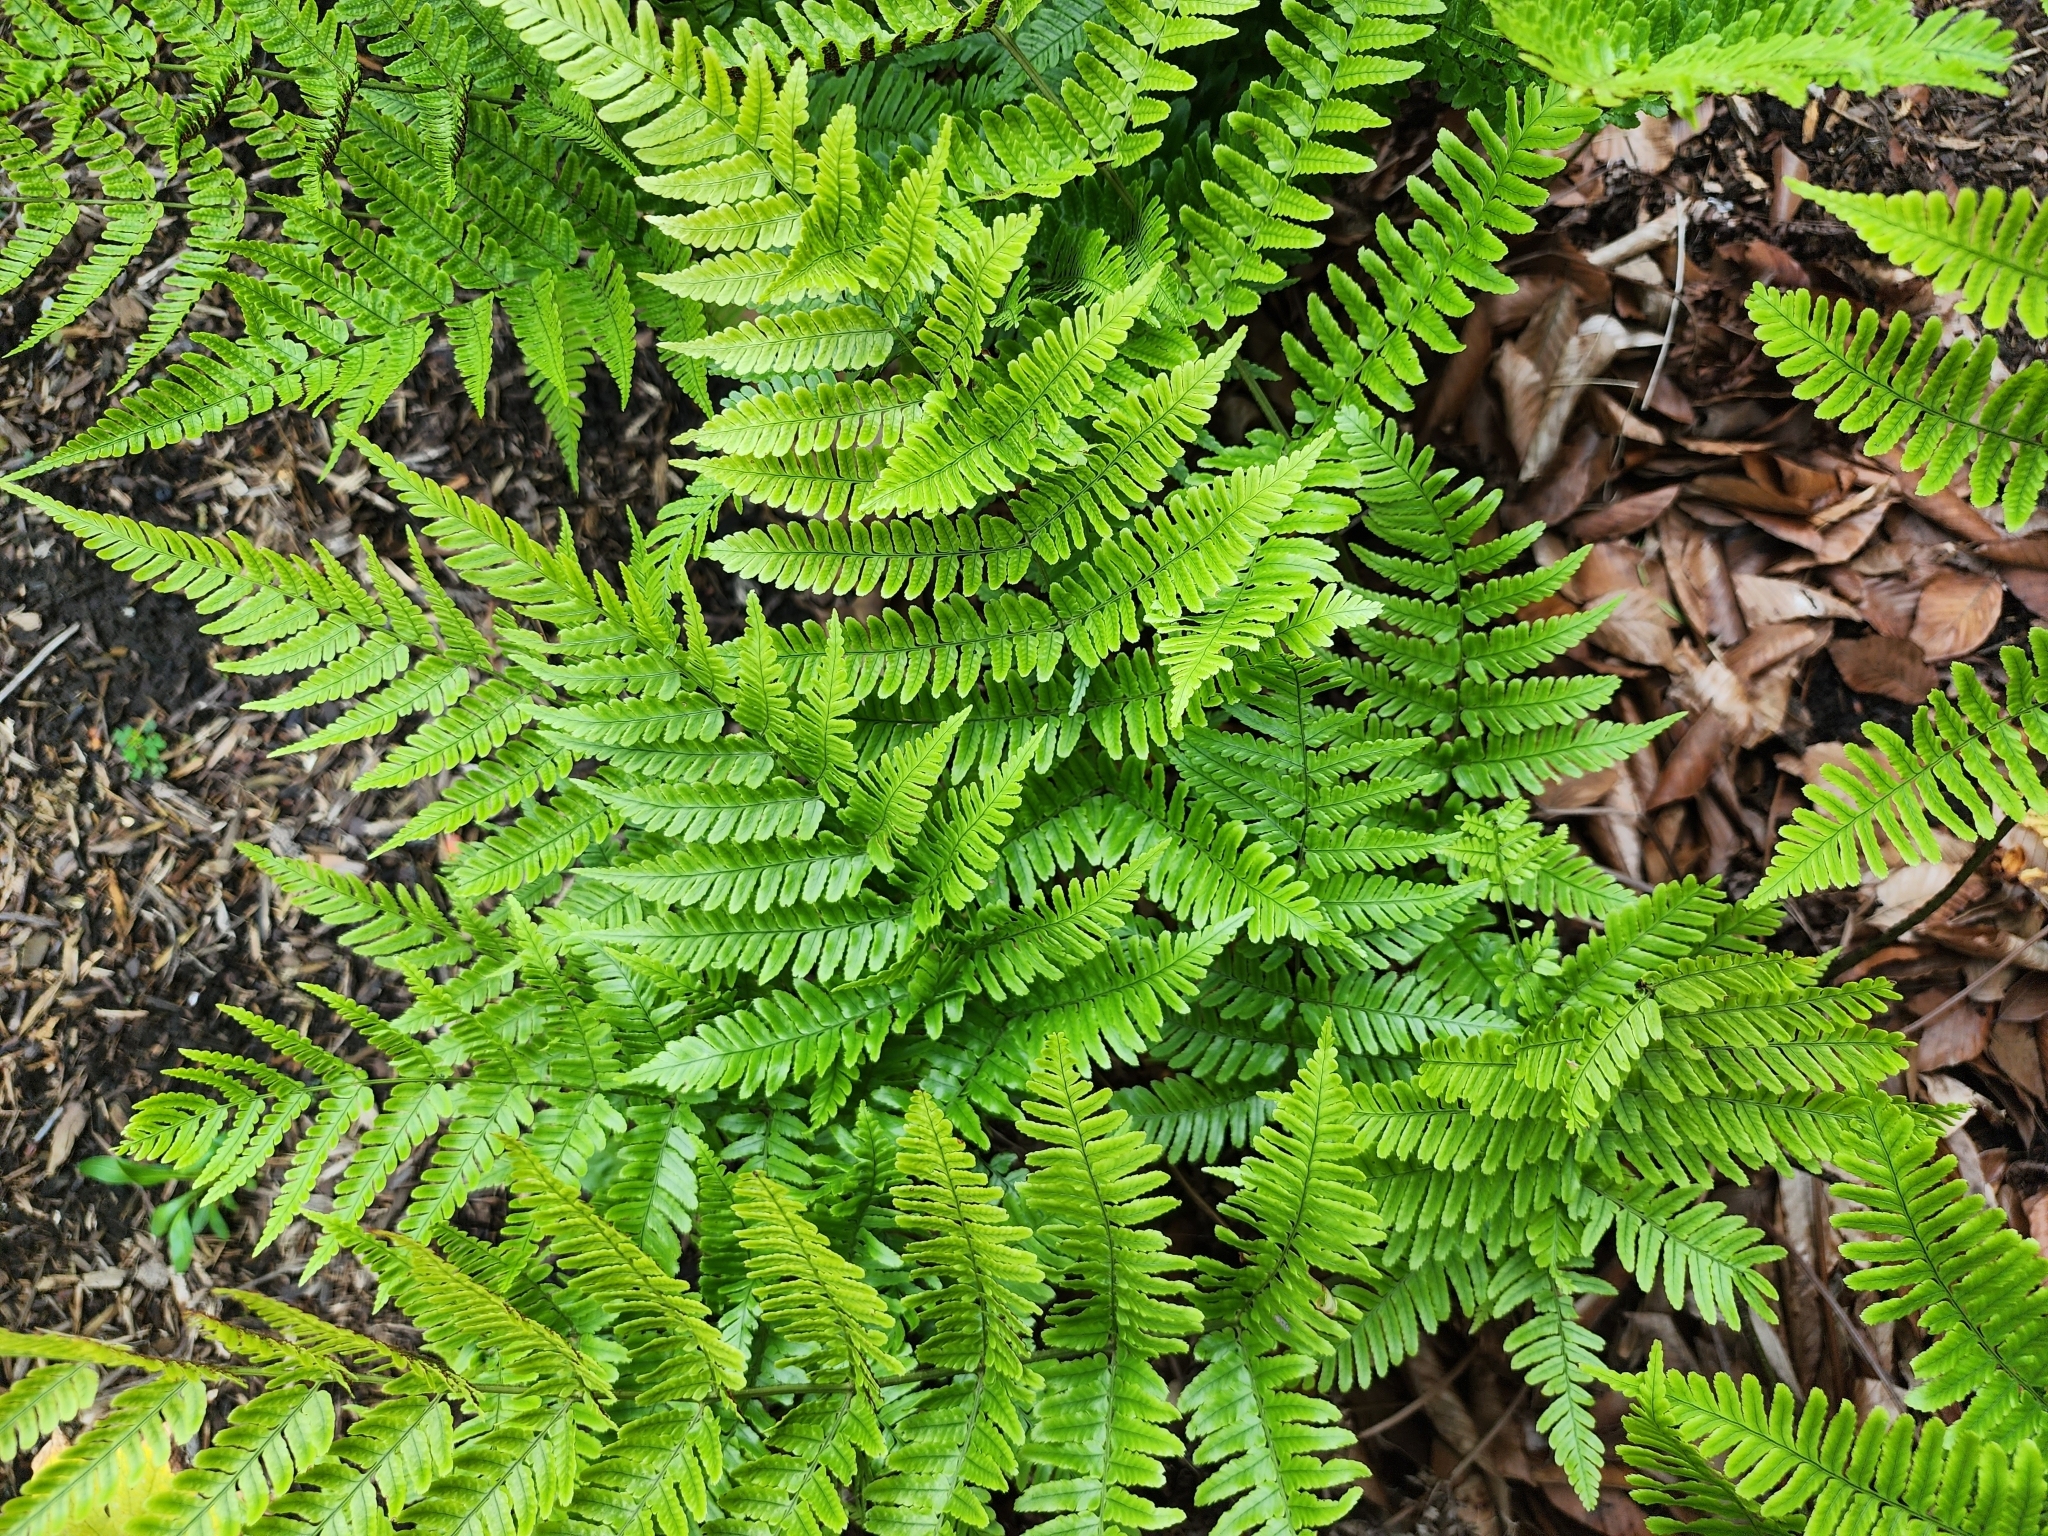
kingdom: Plantae
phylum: Tracheophyta
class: Polypodiopsida
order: Polypodiales
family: Dryopteridaceae
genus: Dryopteris
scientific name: Dryopteris erythrosora
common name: Autumn fern
